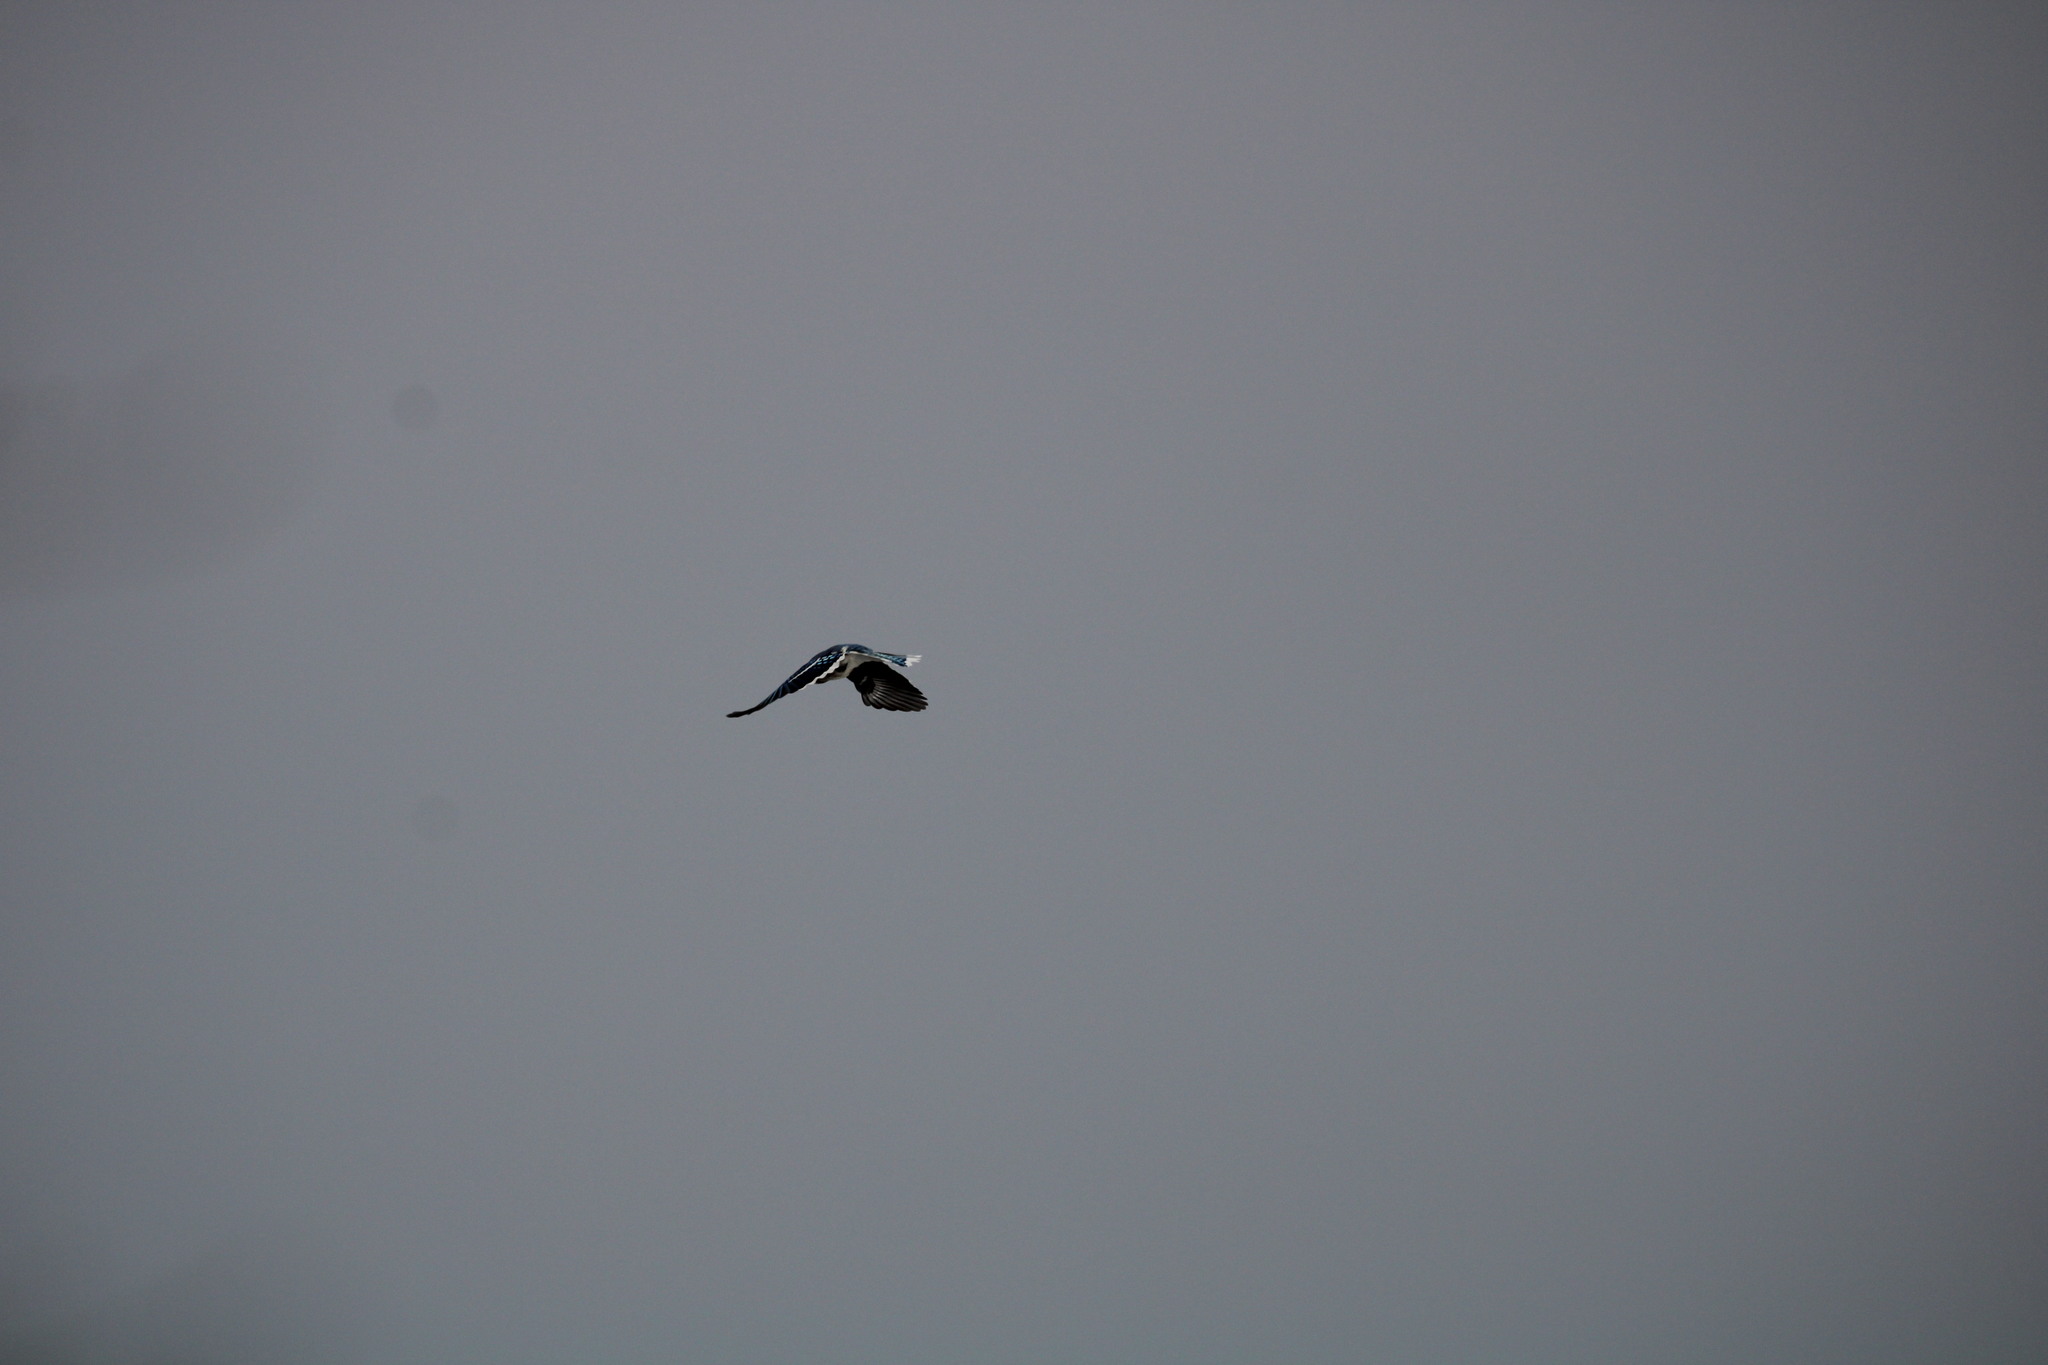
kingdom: Animalia
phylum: Chordata
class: Aves
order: Passeriformes
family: Corvidae
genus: Cyanocitta
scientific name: Cyanocitta cristata
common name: Blue jay
